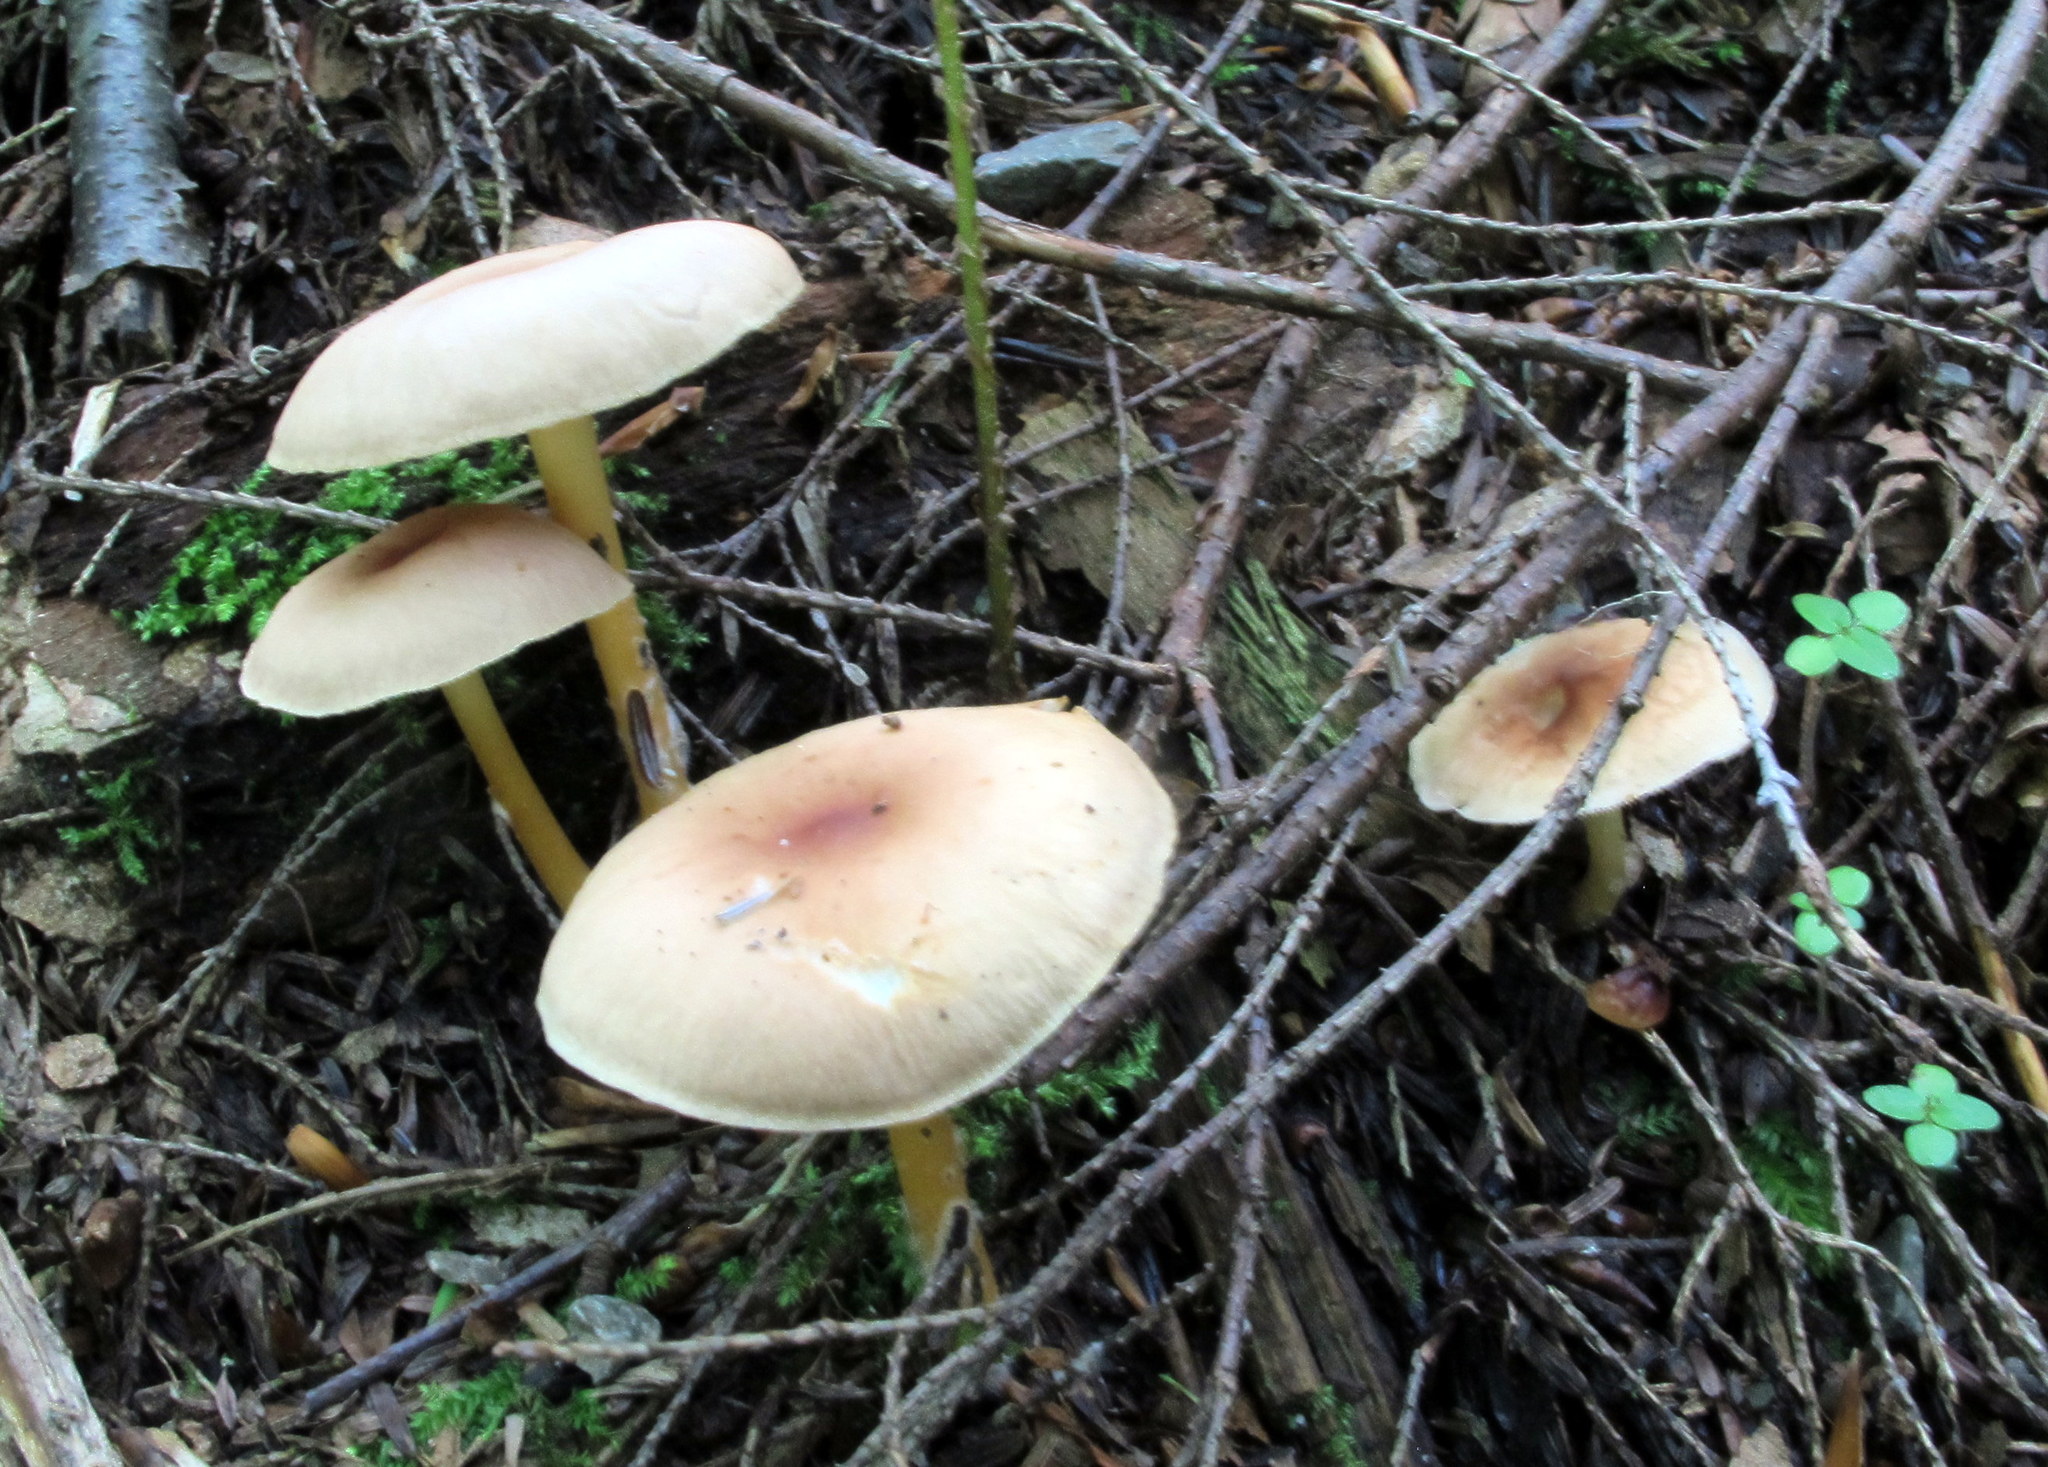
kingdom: Fungi
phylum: Basidiomycota
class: Agaricomycetes
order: Agaricales
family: Omphalotaceae
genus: Gymnopus
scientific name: Gymnopus dryophilus
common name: Penny top
